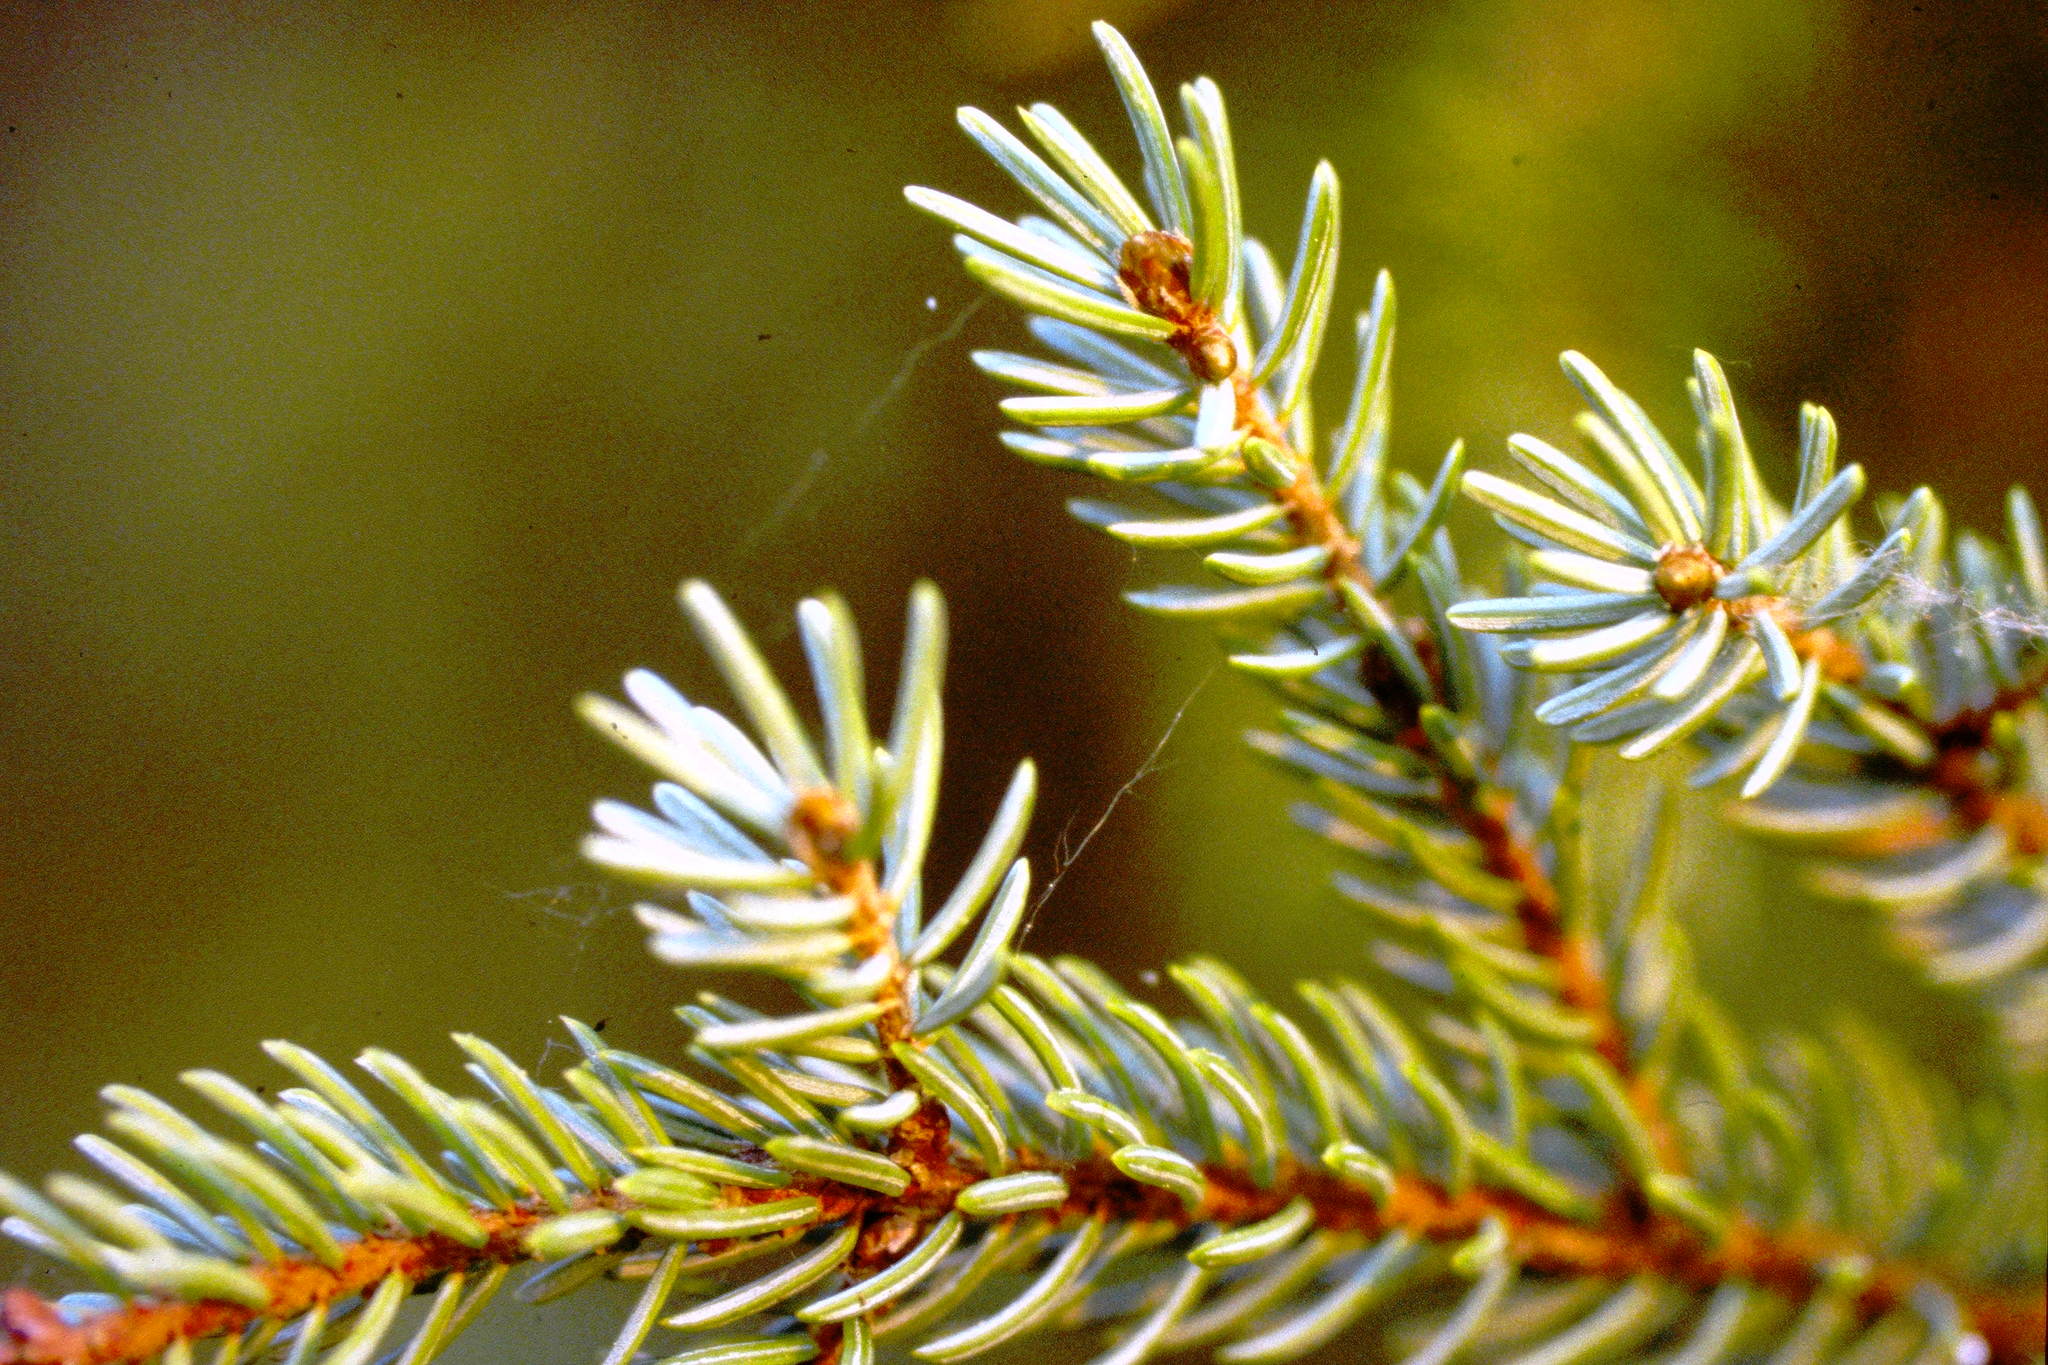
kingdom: Plantae
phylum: Tracheophyta
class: Pinopsida
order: Pinales
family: Pinaceae
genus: Picea
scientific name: Picea mariana
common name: Black spruce
